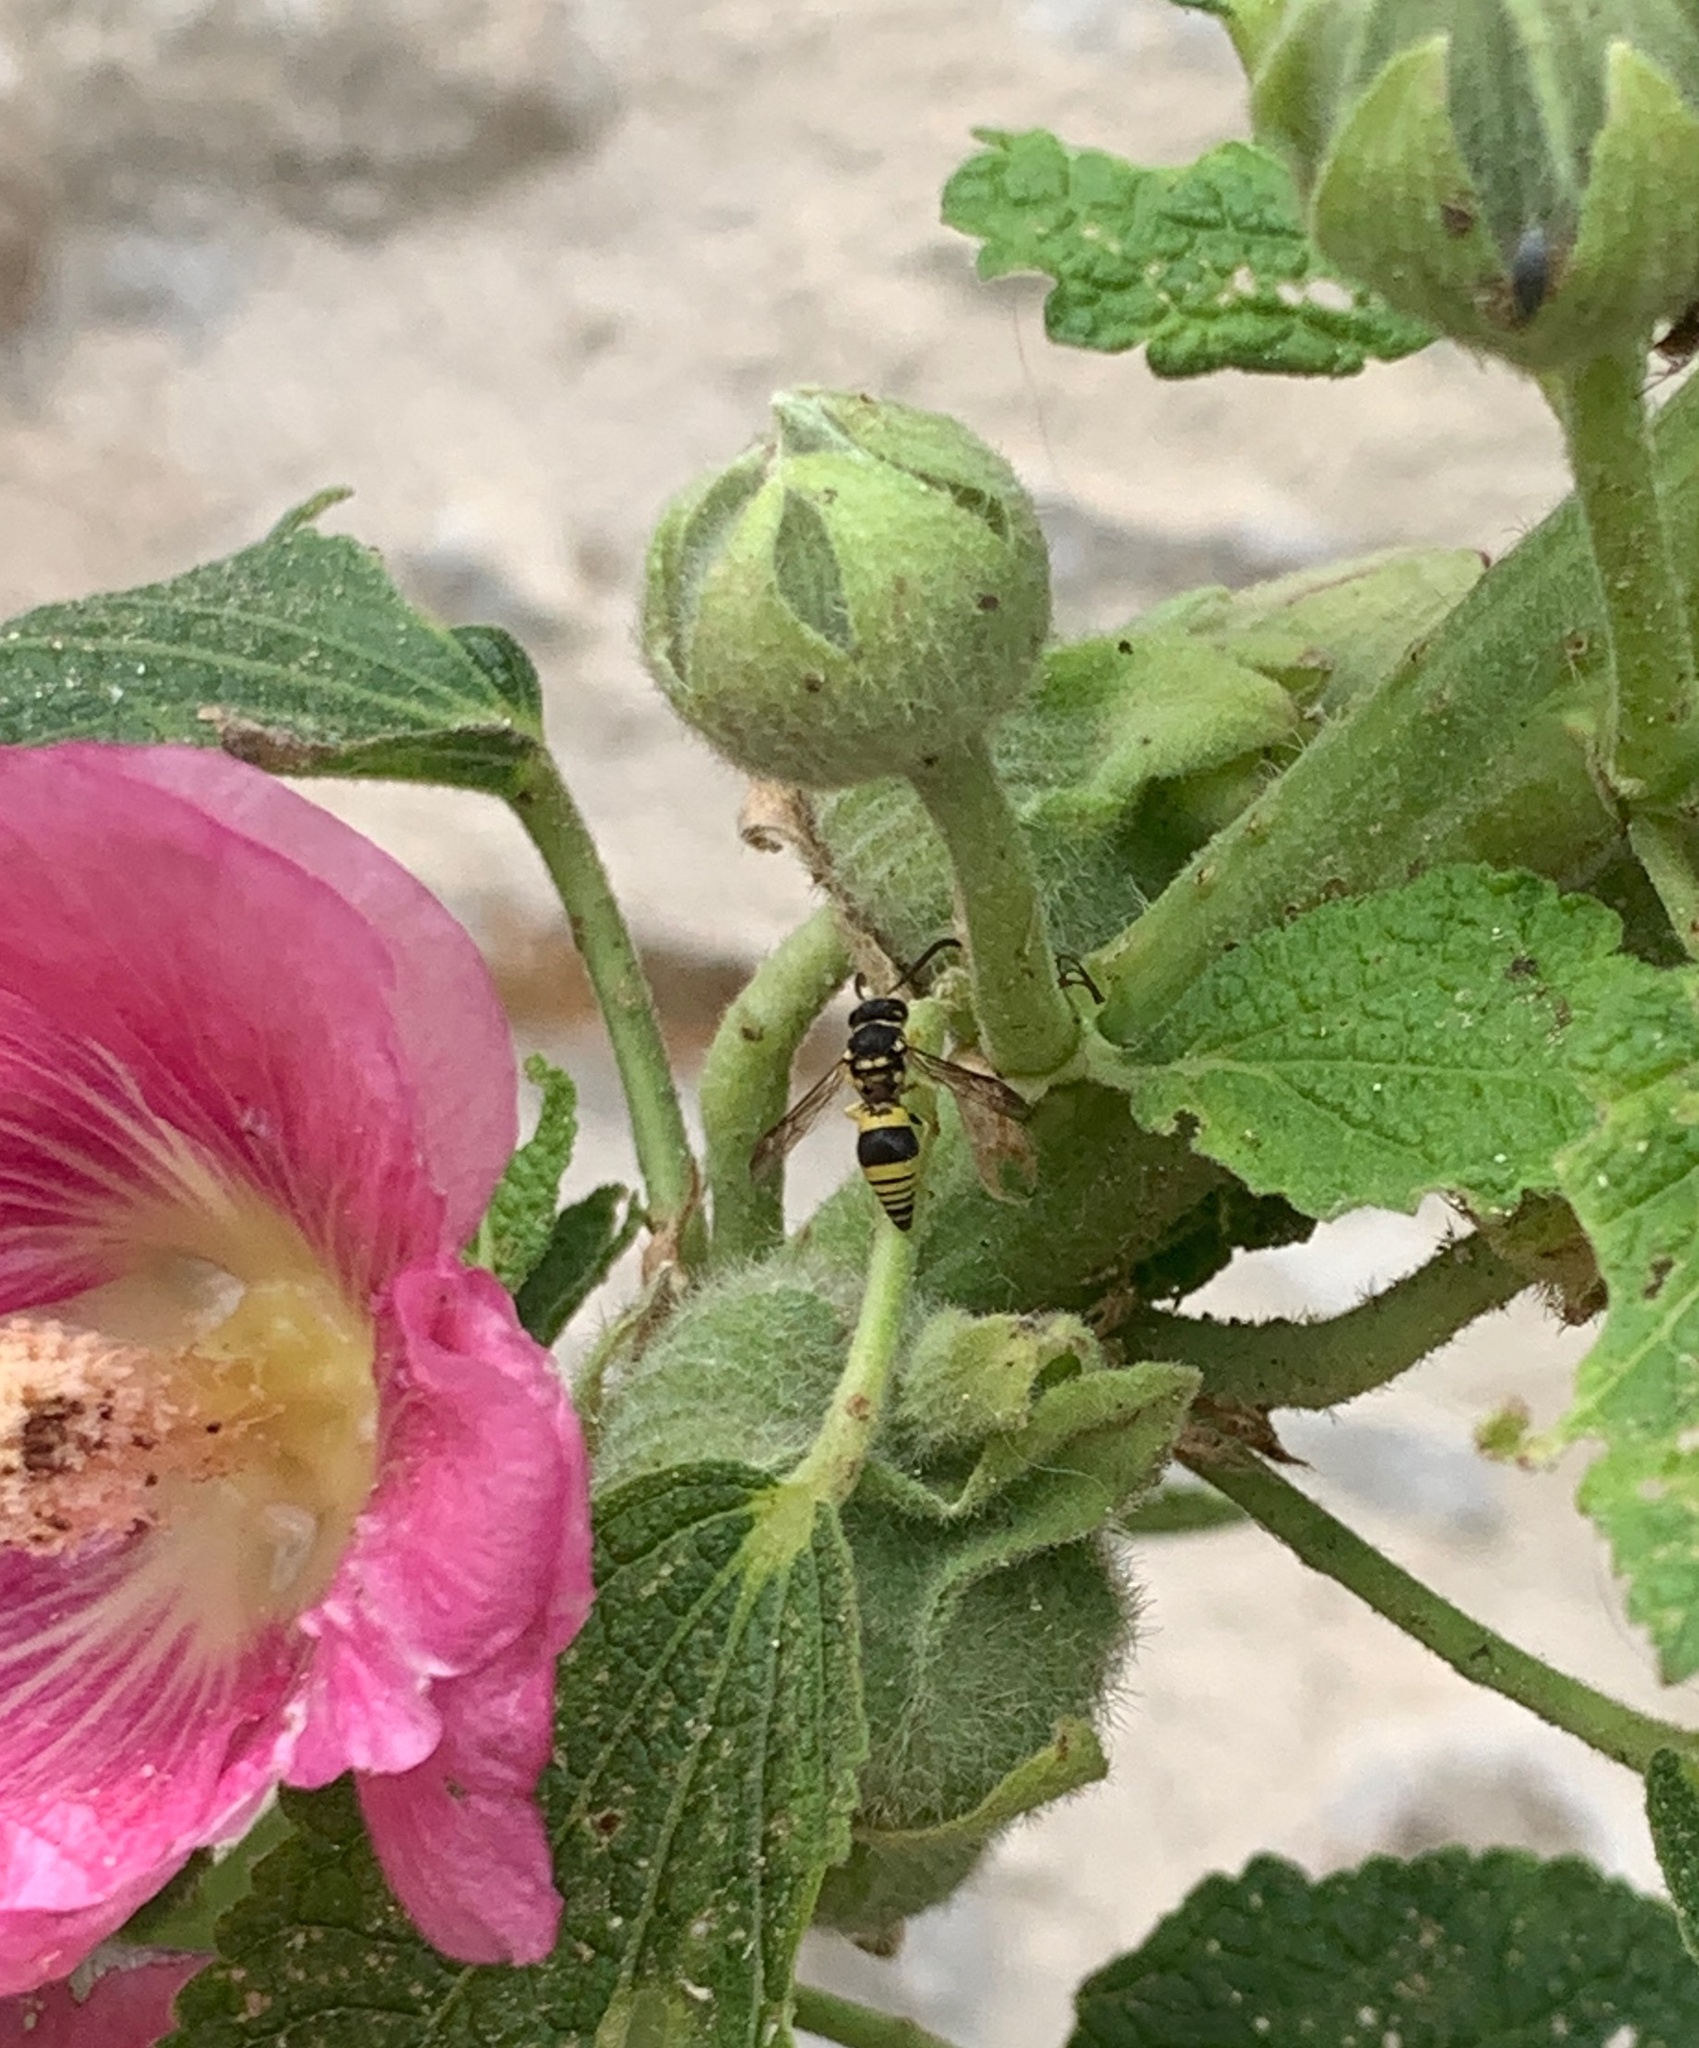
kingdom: Animalia
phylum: Arthropoda
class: Insecta
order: Hymenoptera
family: Vespidae
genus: Ancistrocerus
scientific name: Ancistrocerus
